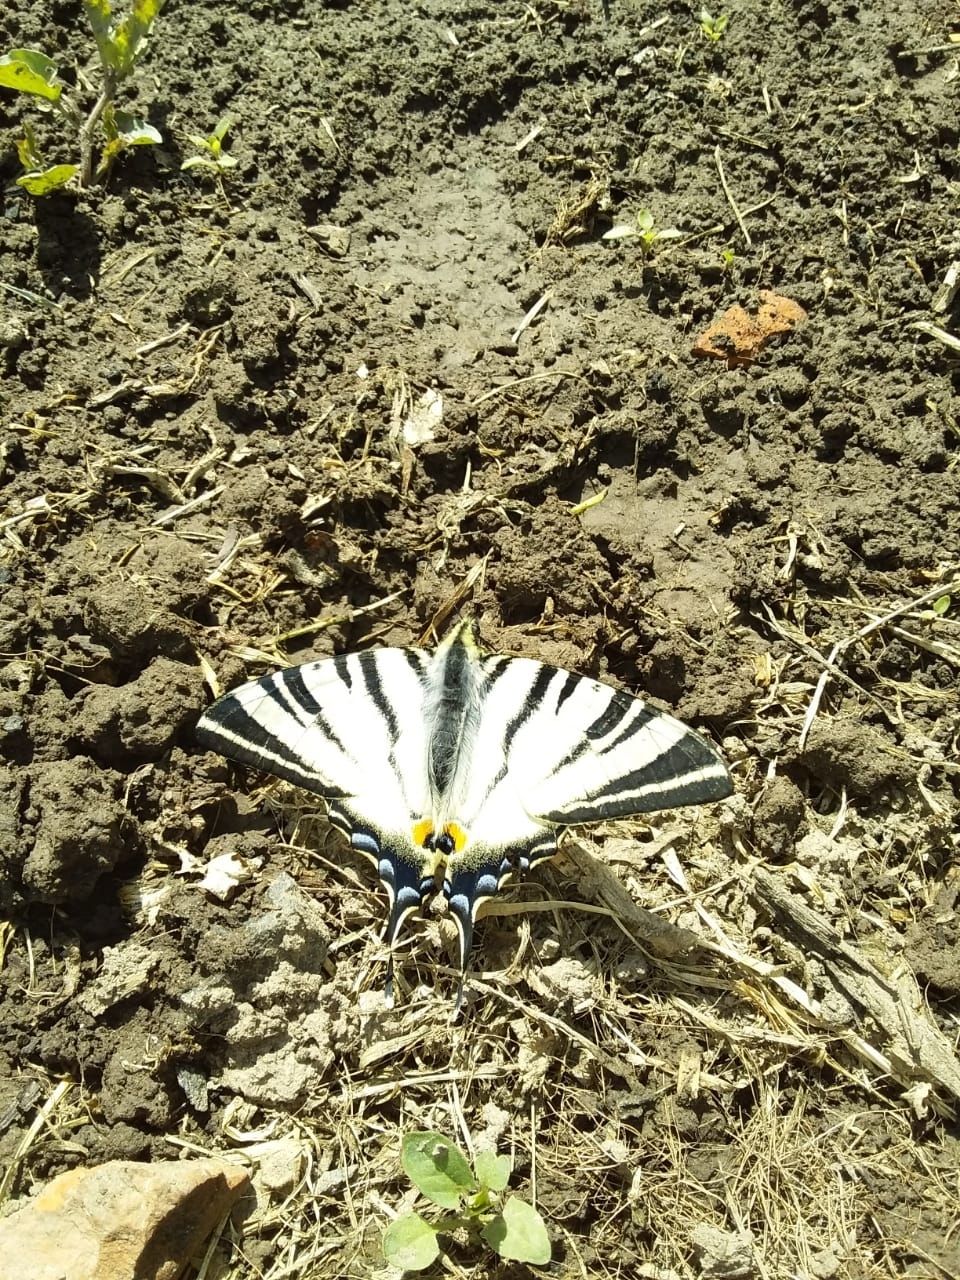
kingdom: Animalia
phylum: Arthropoda
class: Insecta
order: Lepidoptera
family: Papilionidae
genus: Iphiclides
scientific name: Iphiclides podalirius
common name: Scarce swallowtail
